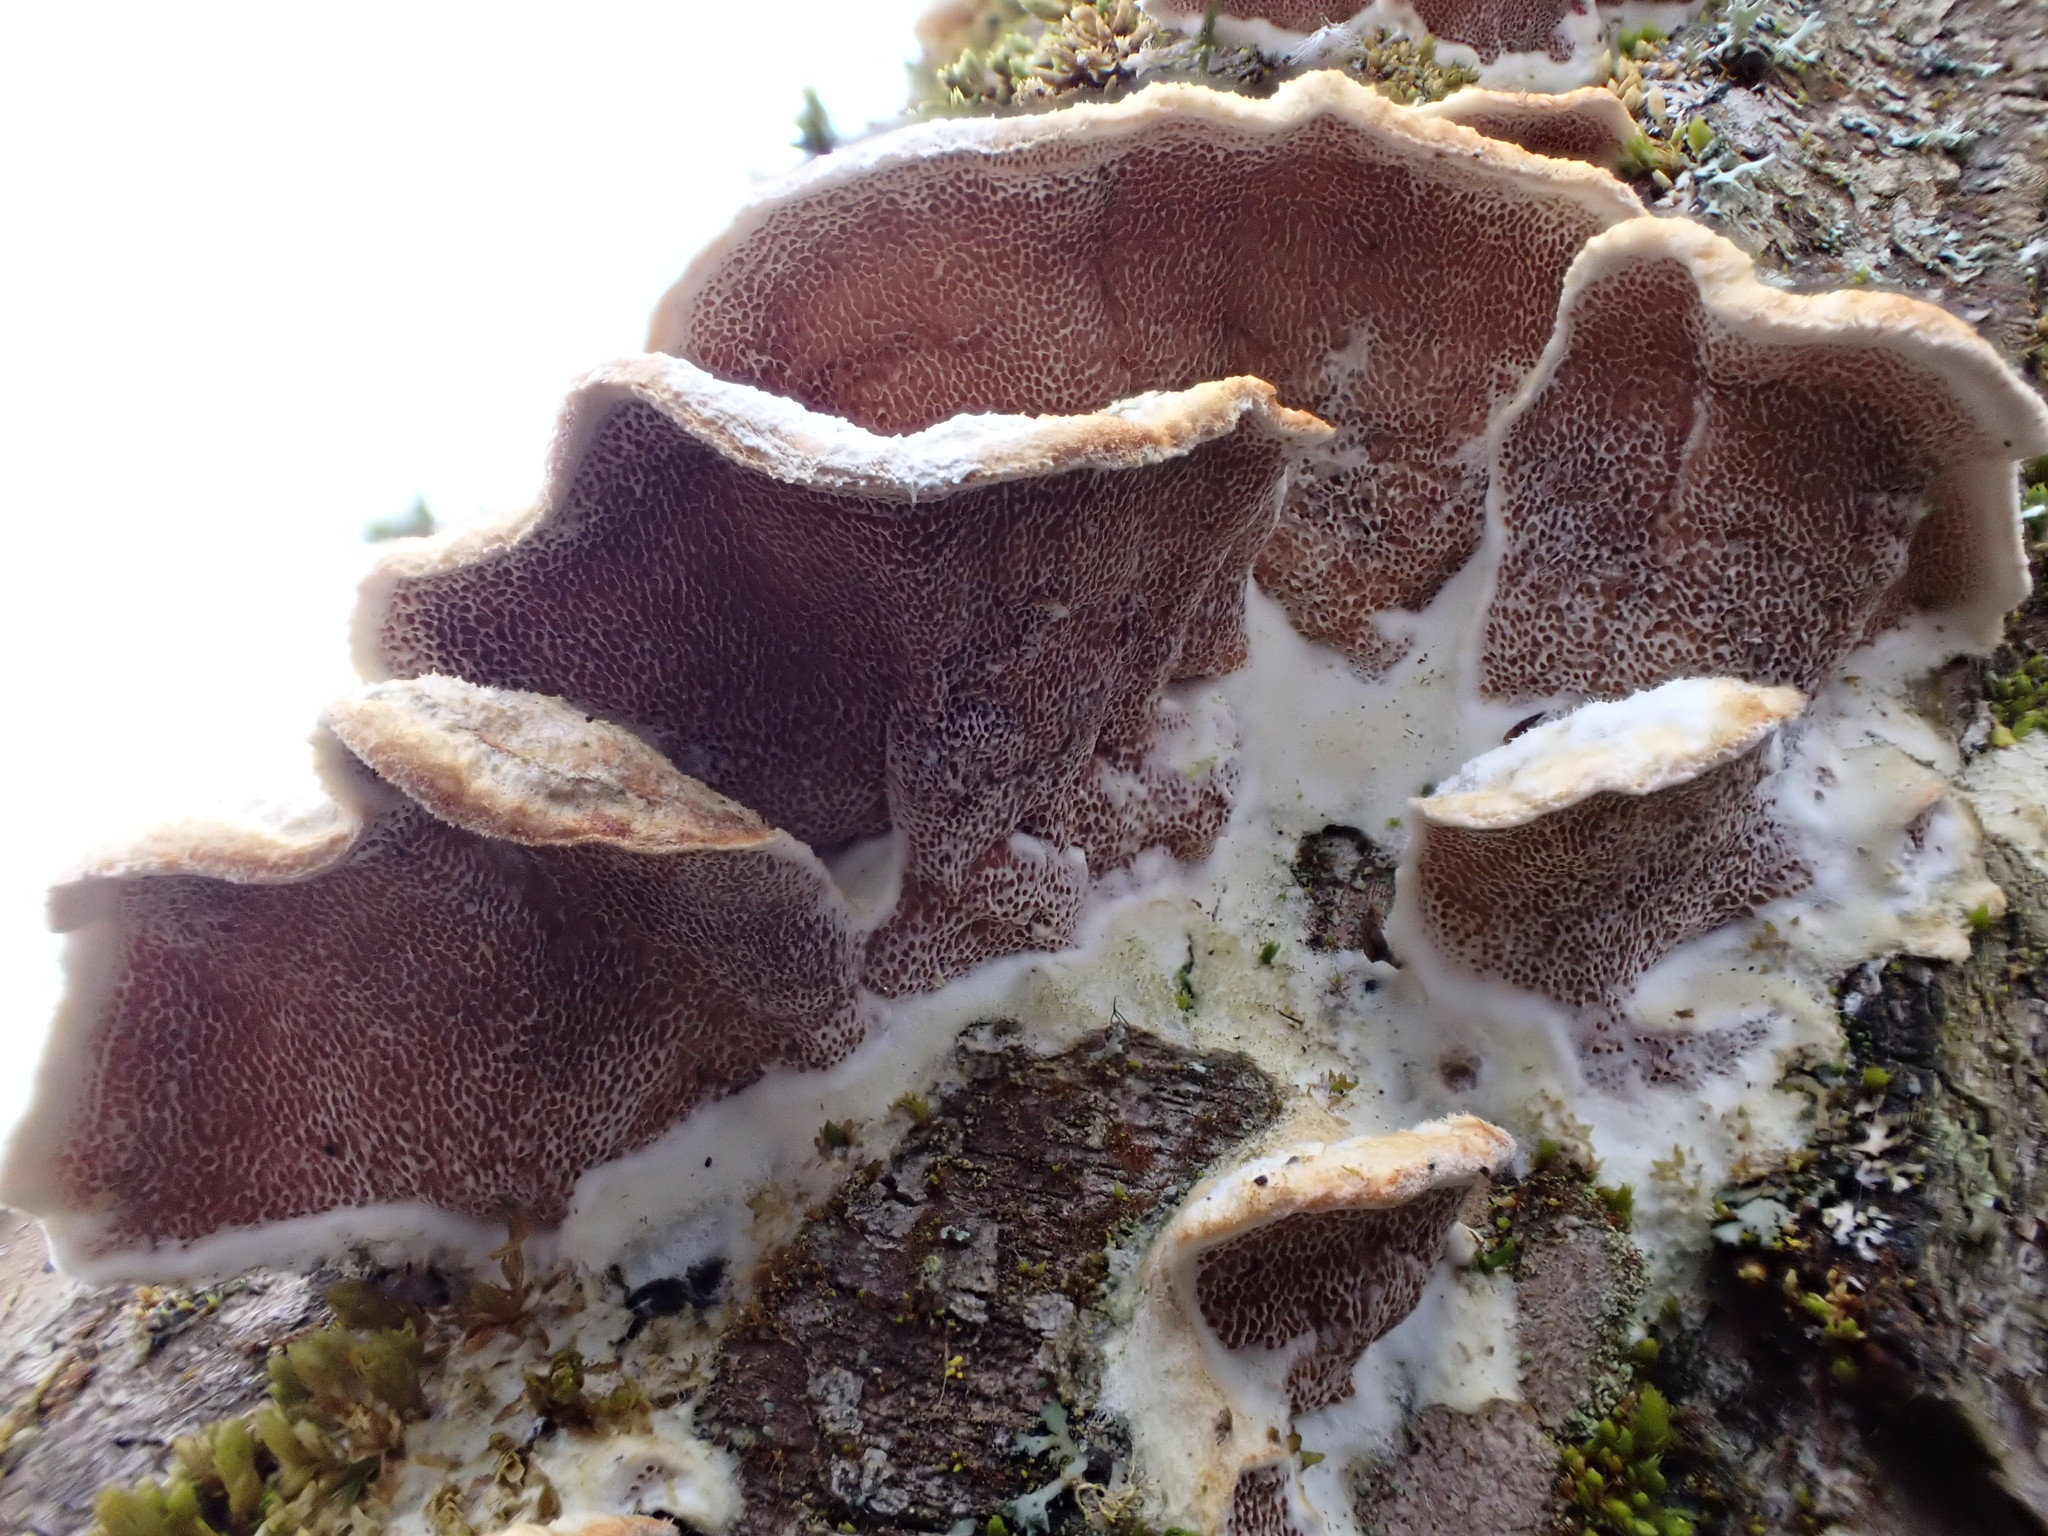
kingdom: Fungi
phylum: Basidiomycota
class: Agaricomycetes
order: Polyporales
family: Irpicaceae
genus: Vitreoporus
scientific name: Vitreoporus dichrous
